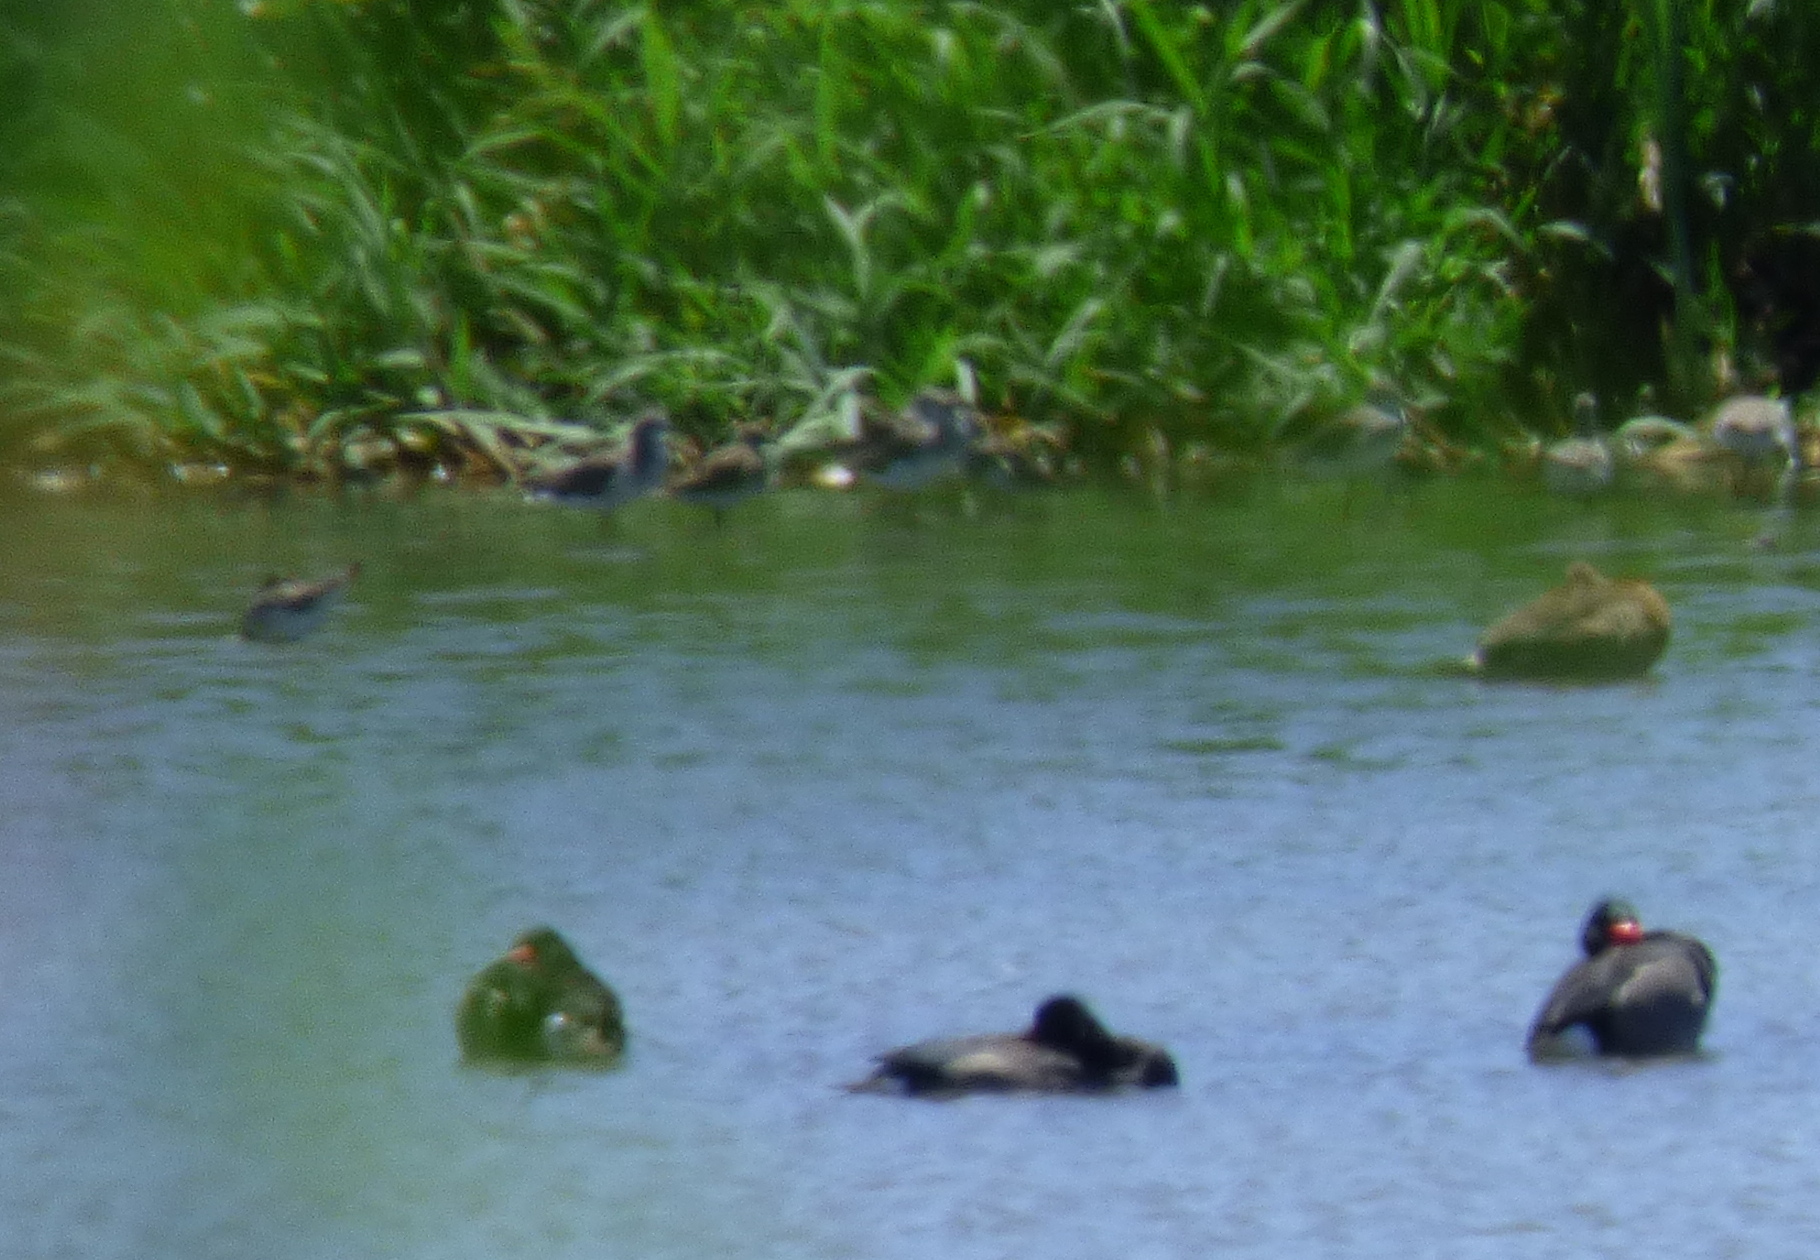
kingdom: Animalia
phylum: Chordata
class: Aves
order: Anseriformes
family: Anatidae
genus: Netta
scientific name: Netta peposaca
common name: Rosy-billed pochard
